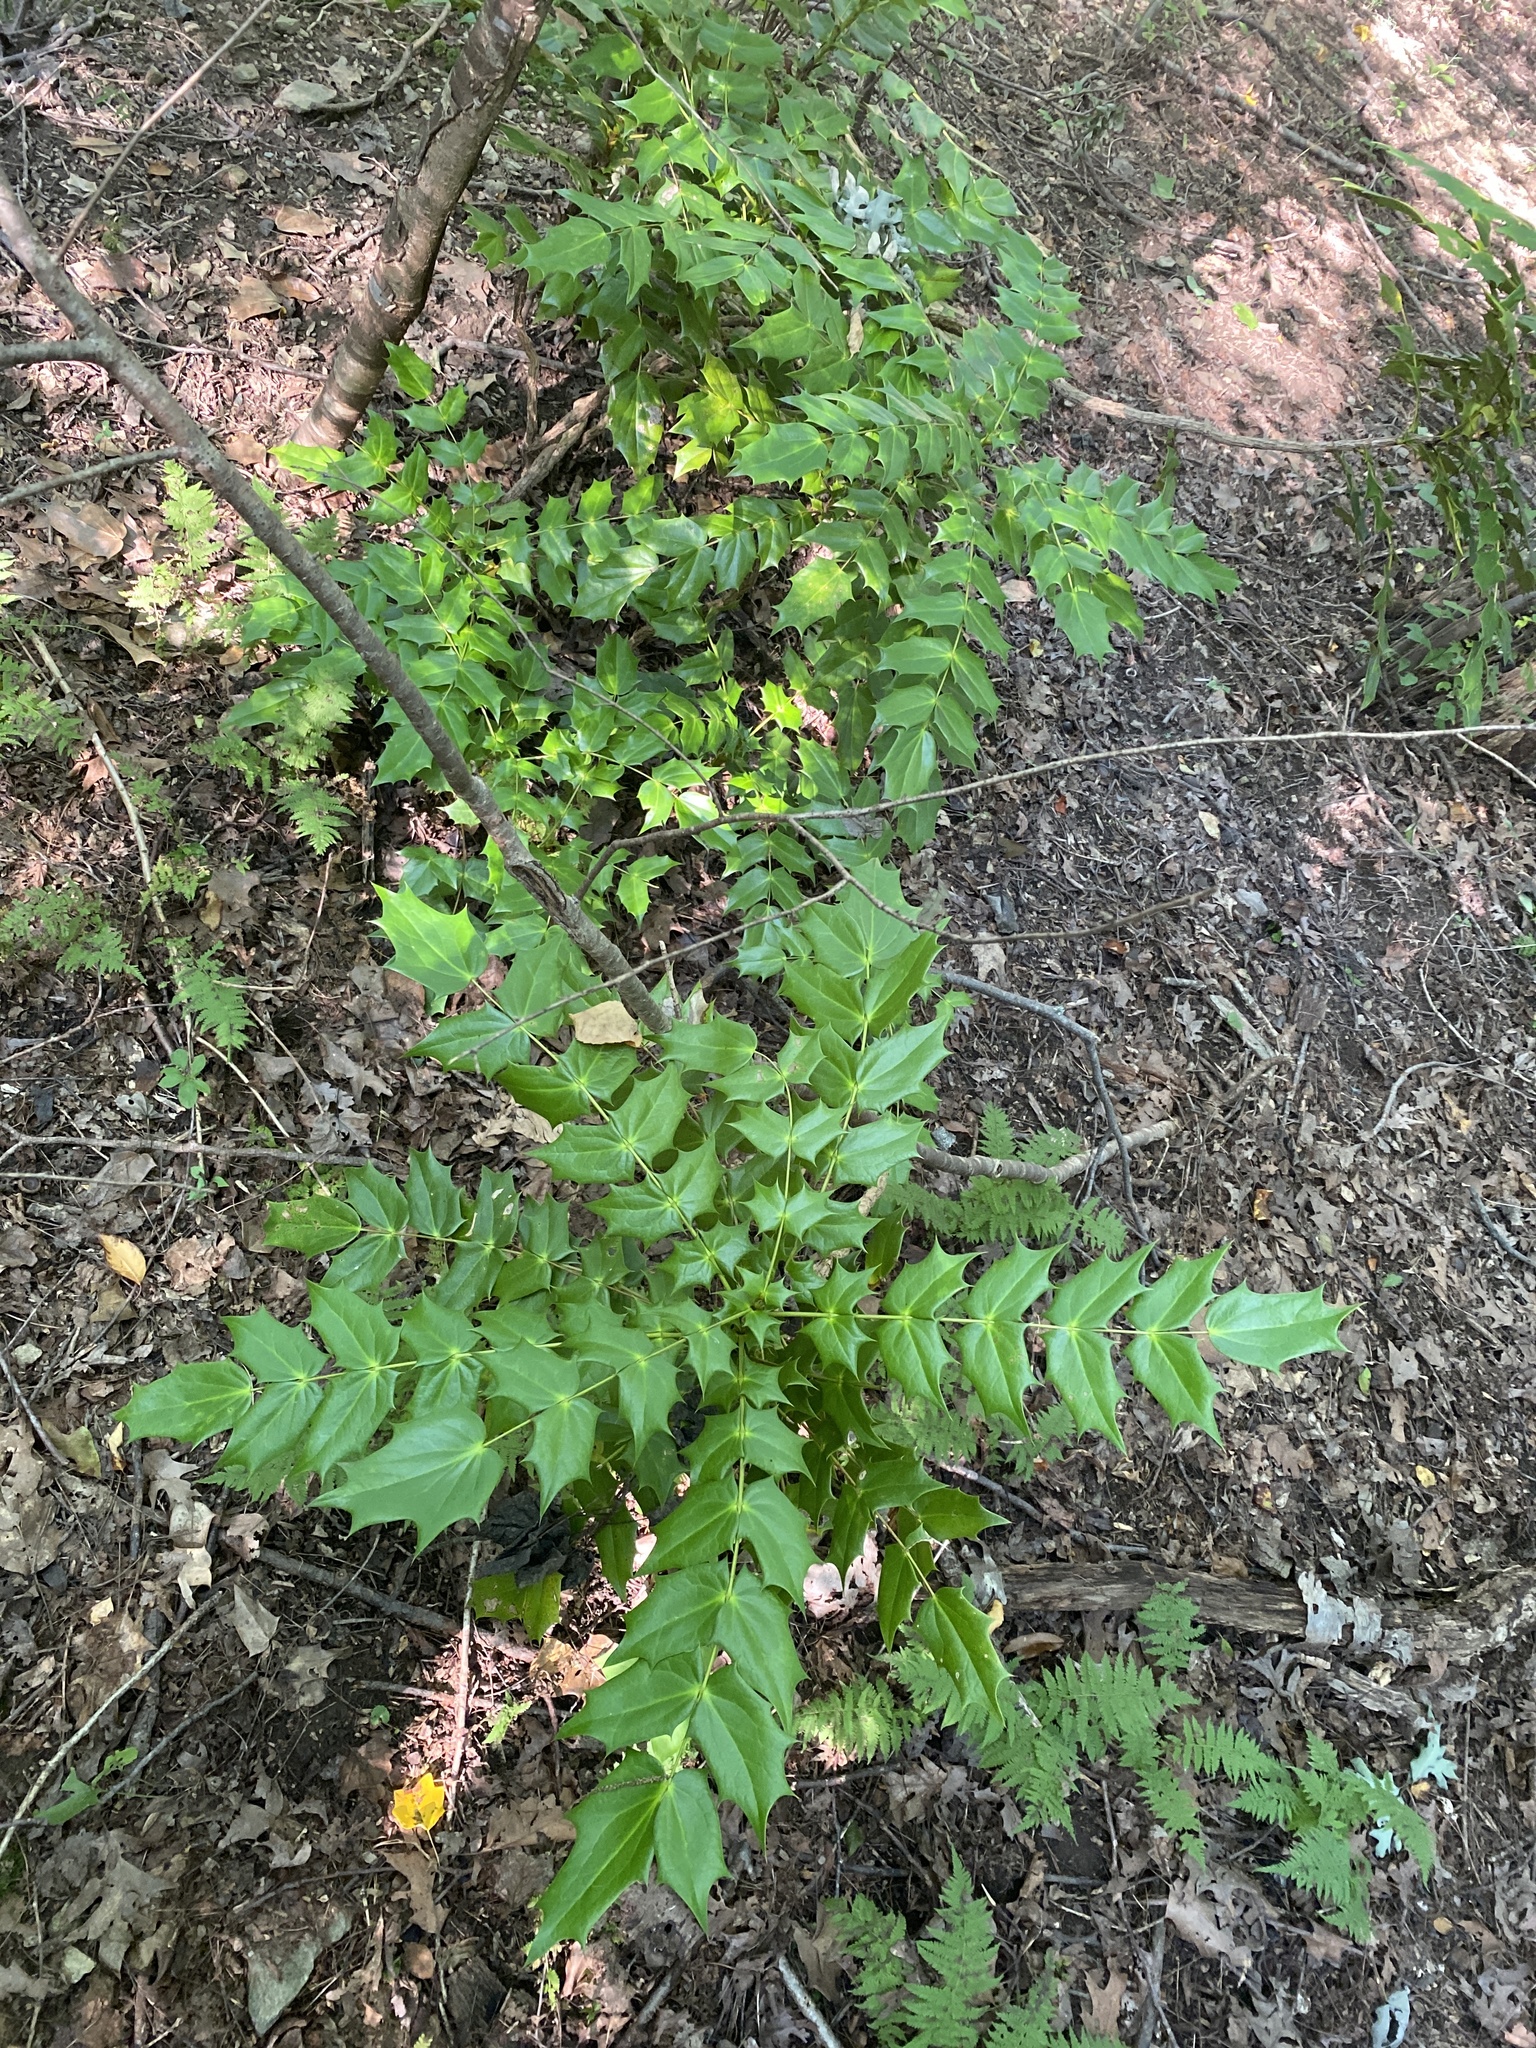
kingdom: Plantae
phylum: Tracheophyta
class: Magnoliopsida
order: Ranunculales
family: Berberidaceae
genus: Mahonia
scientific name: Mahonia bealei
